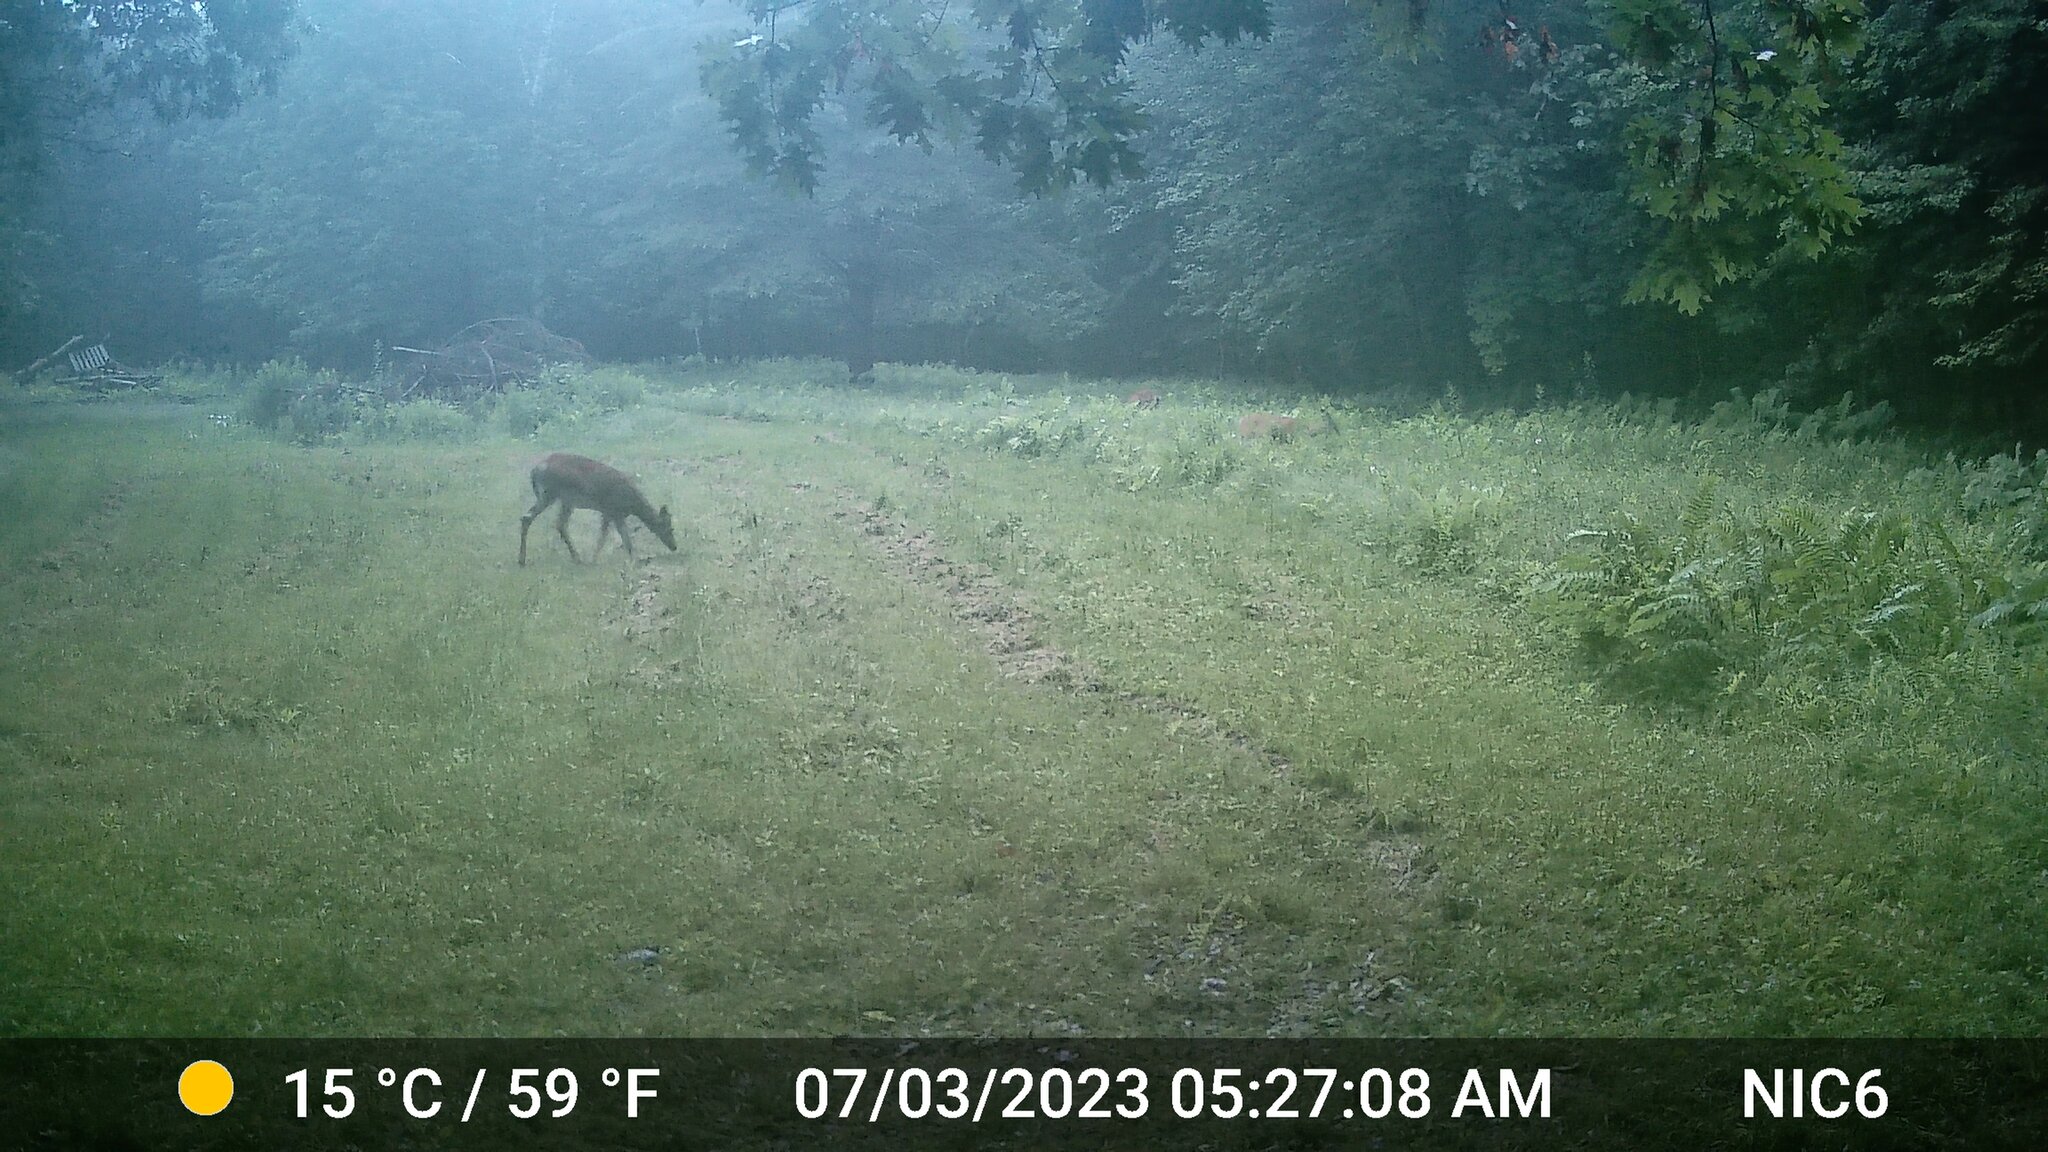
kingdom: Animalia
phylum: Chordata
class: Mammalia
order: Artiodactyla
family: Cervidae
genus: Odocoileus
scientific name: Odocoileus virginianus
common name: White-tailed deer
